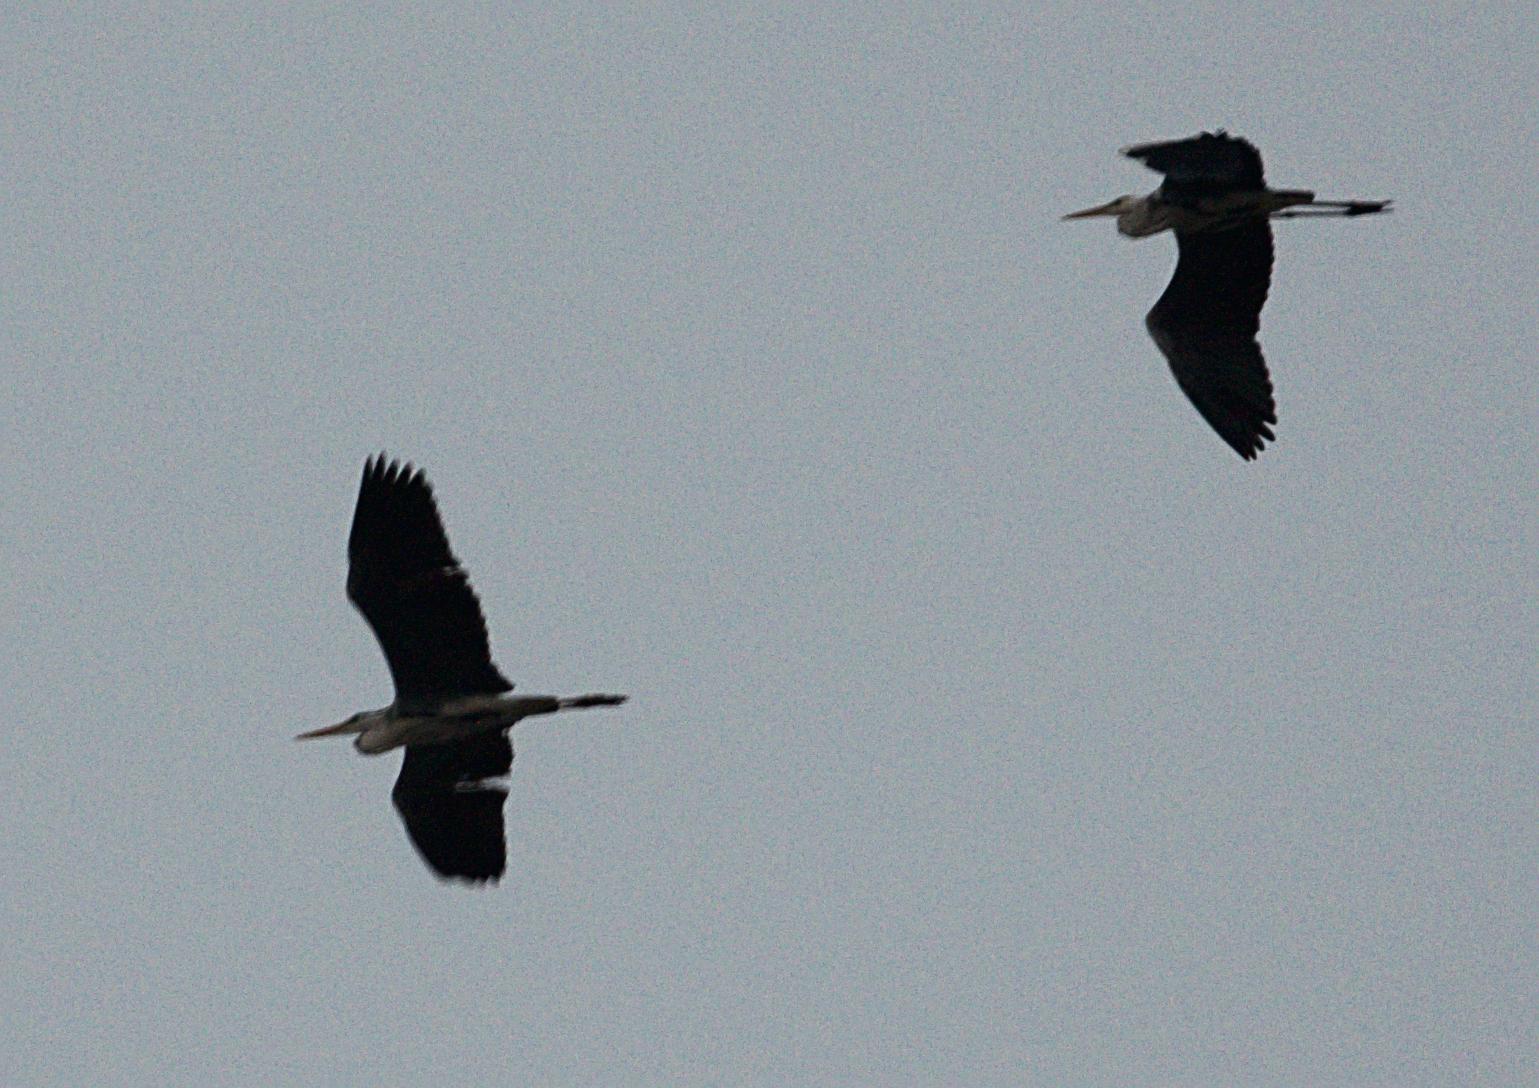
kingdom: Animalia
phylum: Chordata
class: Aves
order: Pelecaniformes
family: Ardeidae
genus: Ardea
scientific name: Ardea cinerea
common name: Grey heron
